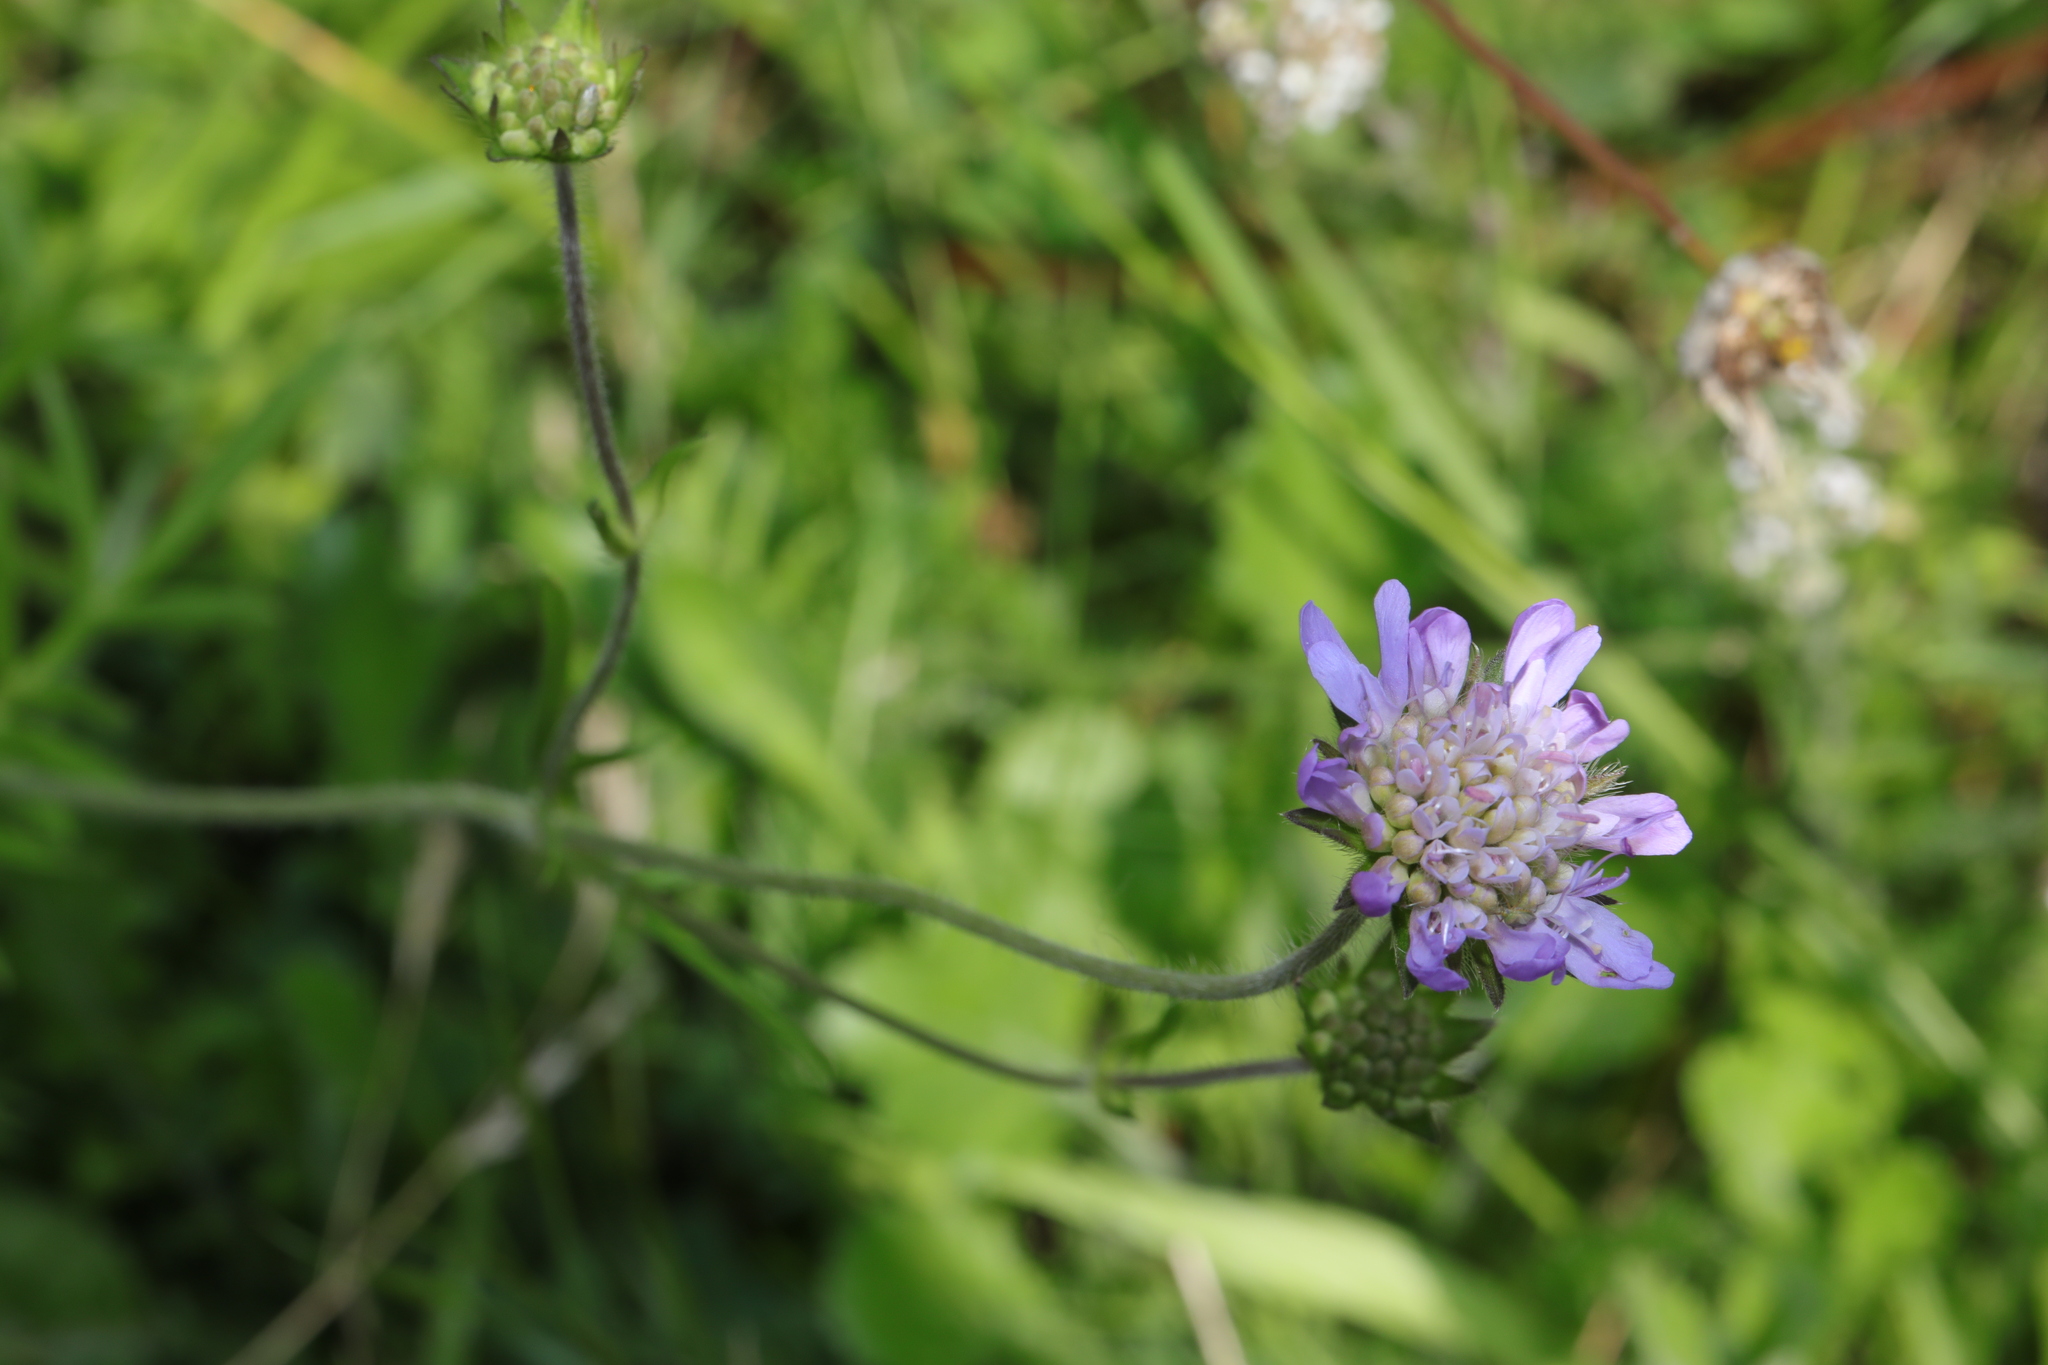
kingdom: Plantae
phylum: Tracheophyta
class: Magnoliopsida
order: Dipsacales
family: Caprifoliaceae
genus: Knautia
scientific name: Knautia arvensis
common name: Field scabiosa
